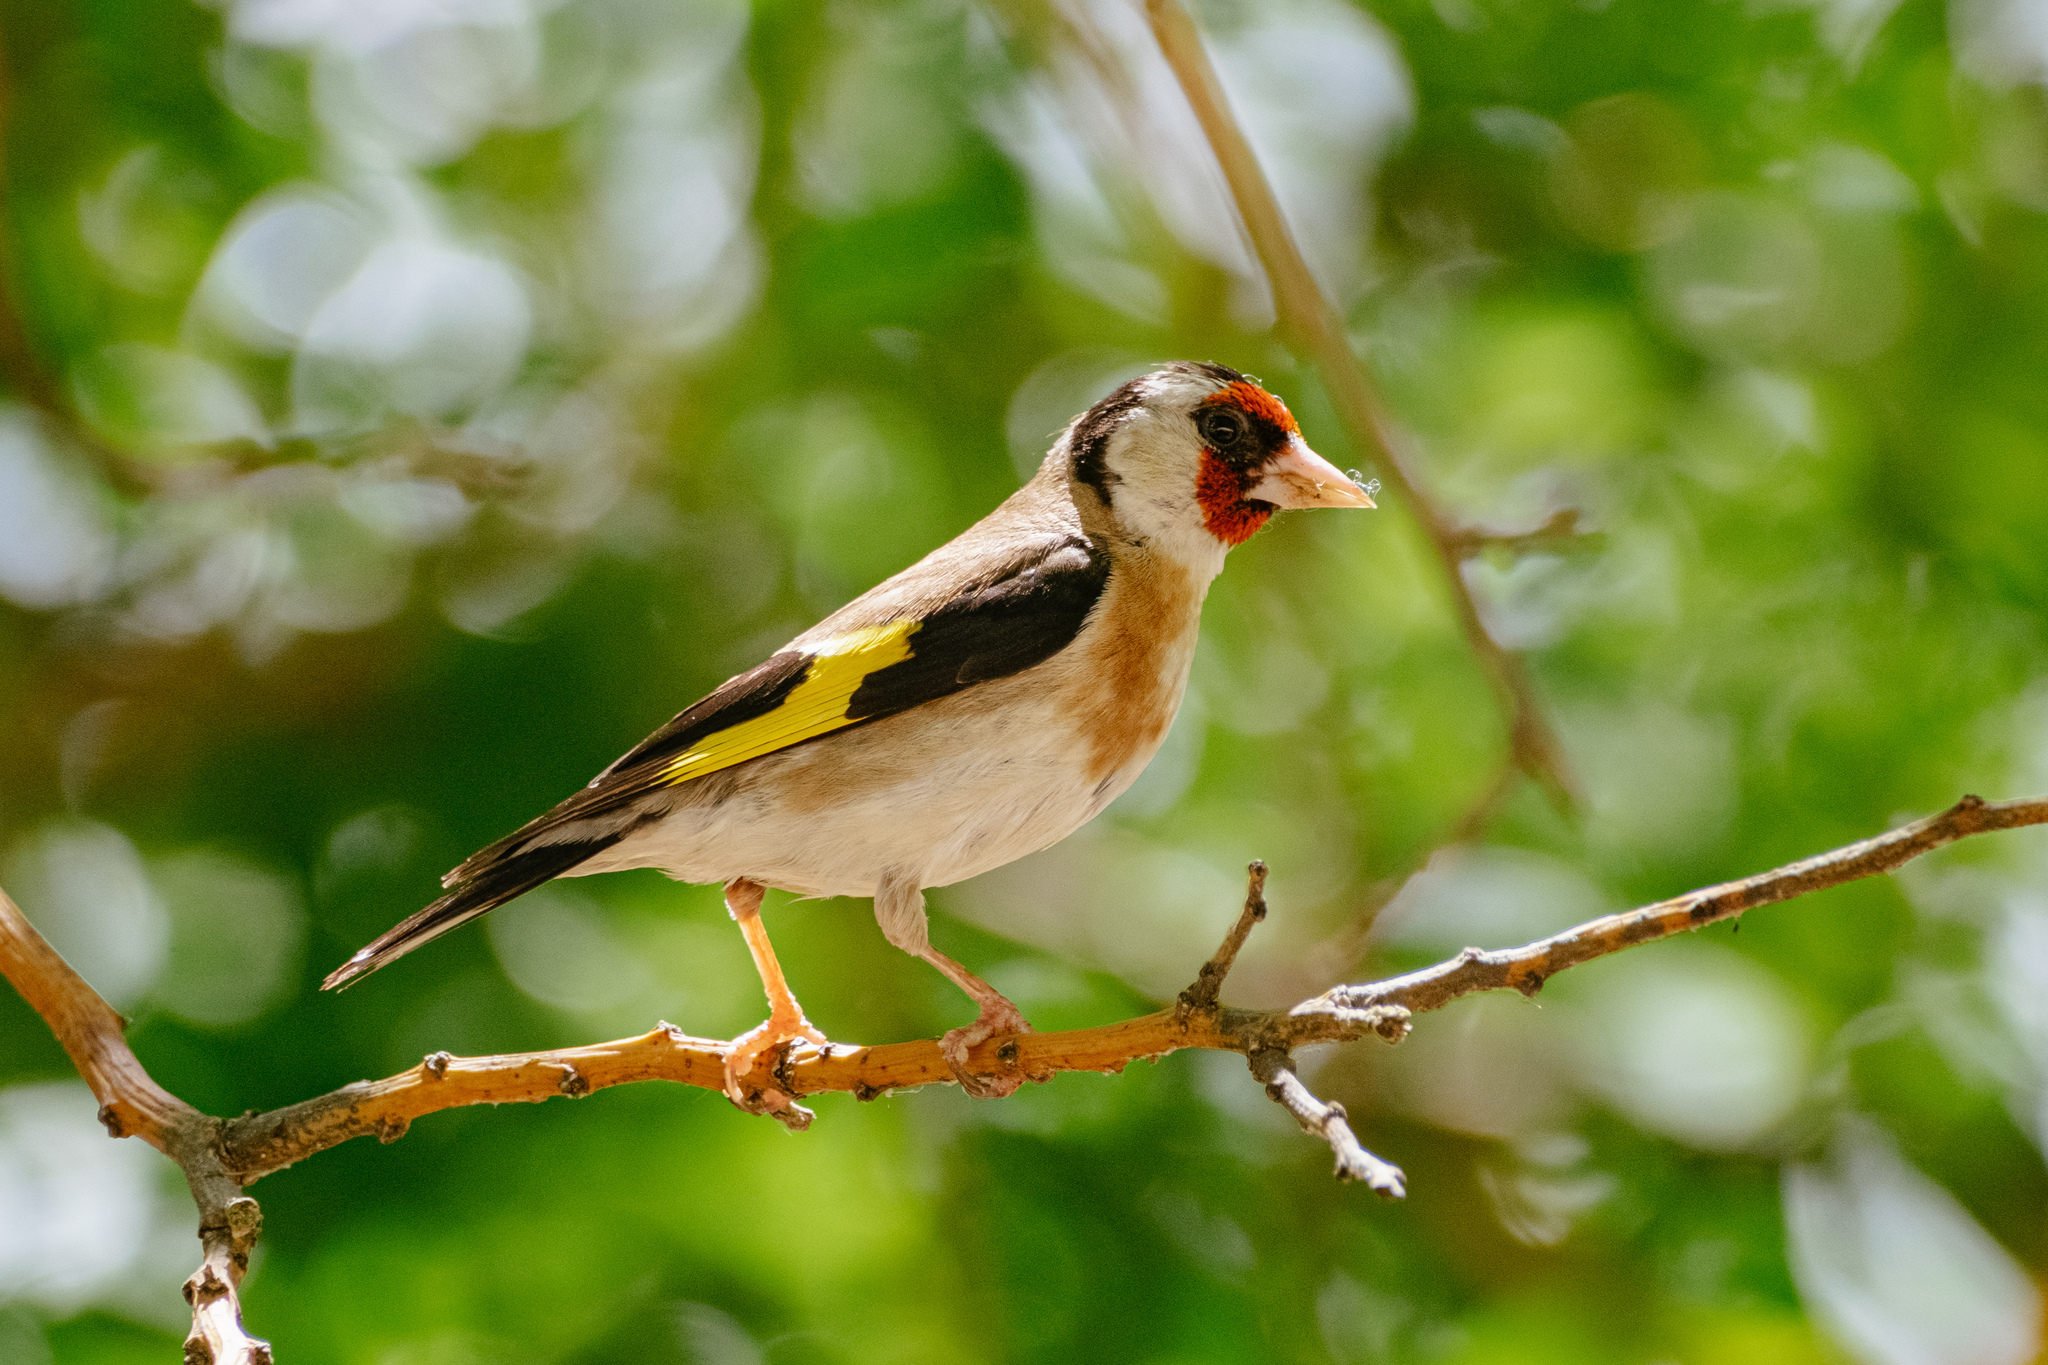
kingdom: Animalia
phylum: Chordata
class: Aves
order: Passeriformes
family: Fringillidae
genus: Carduelis
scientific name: Carduelis carduelis
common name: European goldfinch
